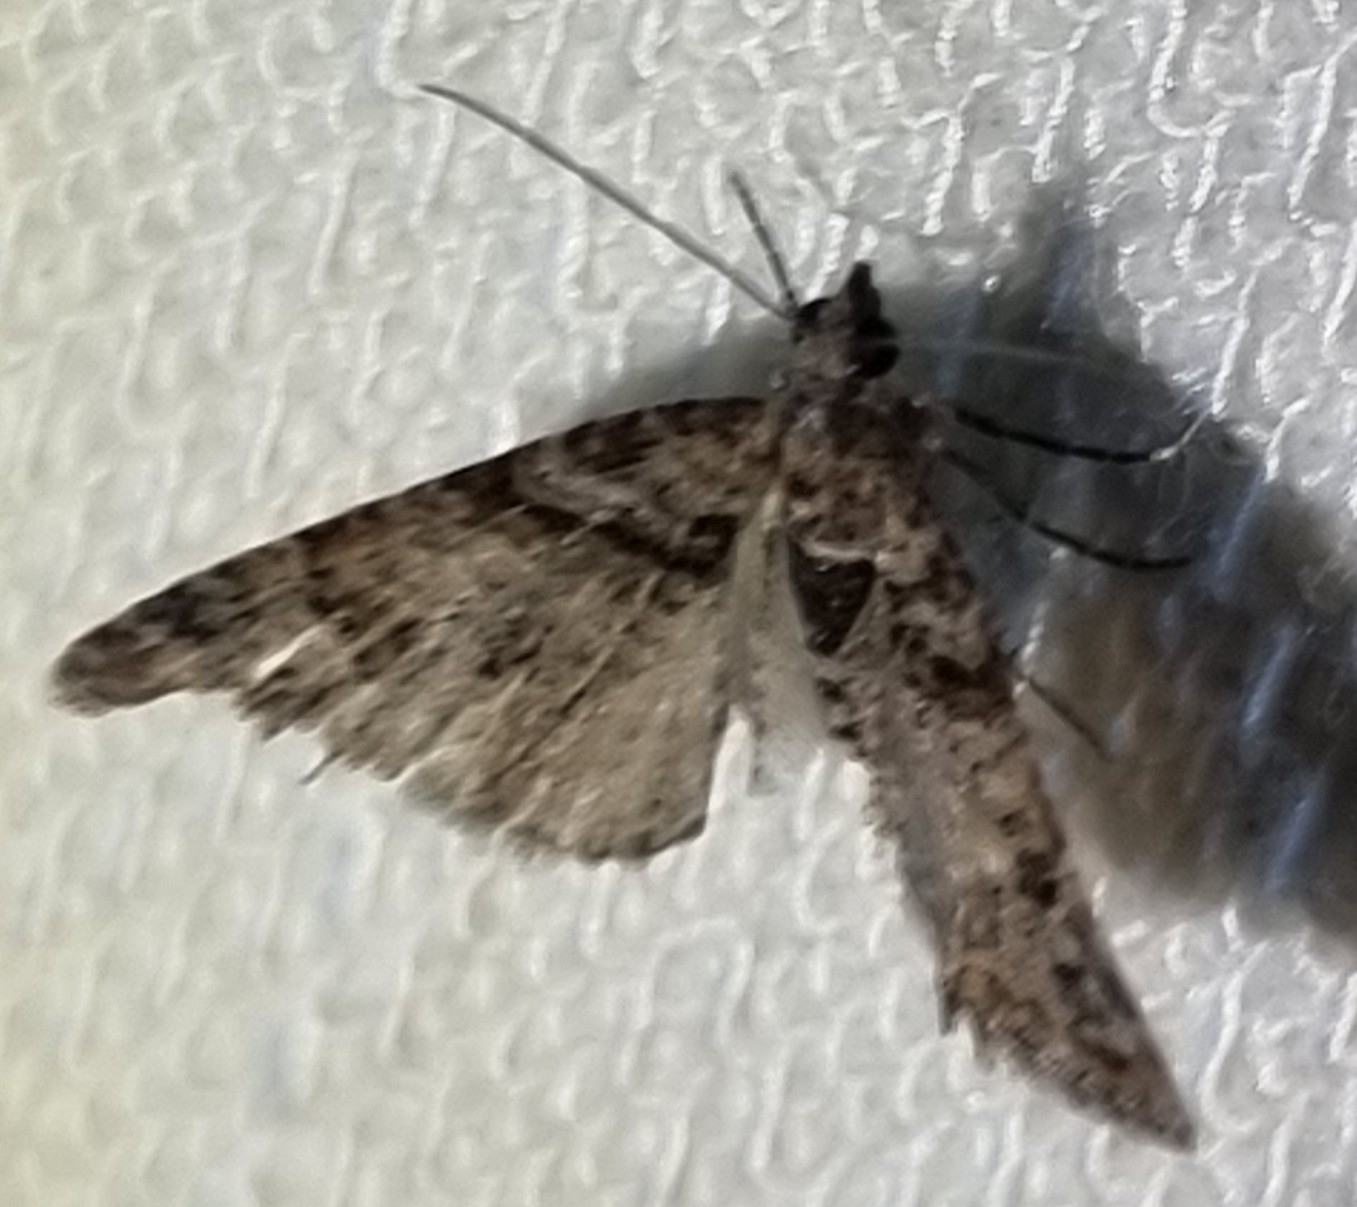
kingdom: Animalia
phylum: Arthropoda
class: Insecta
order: Lepidoptera
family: Geometridae
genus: Phrissogonus
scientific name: Phrissogonus laticostata
